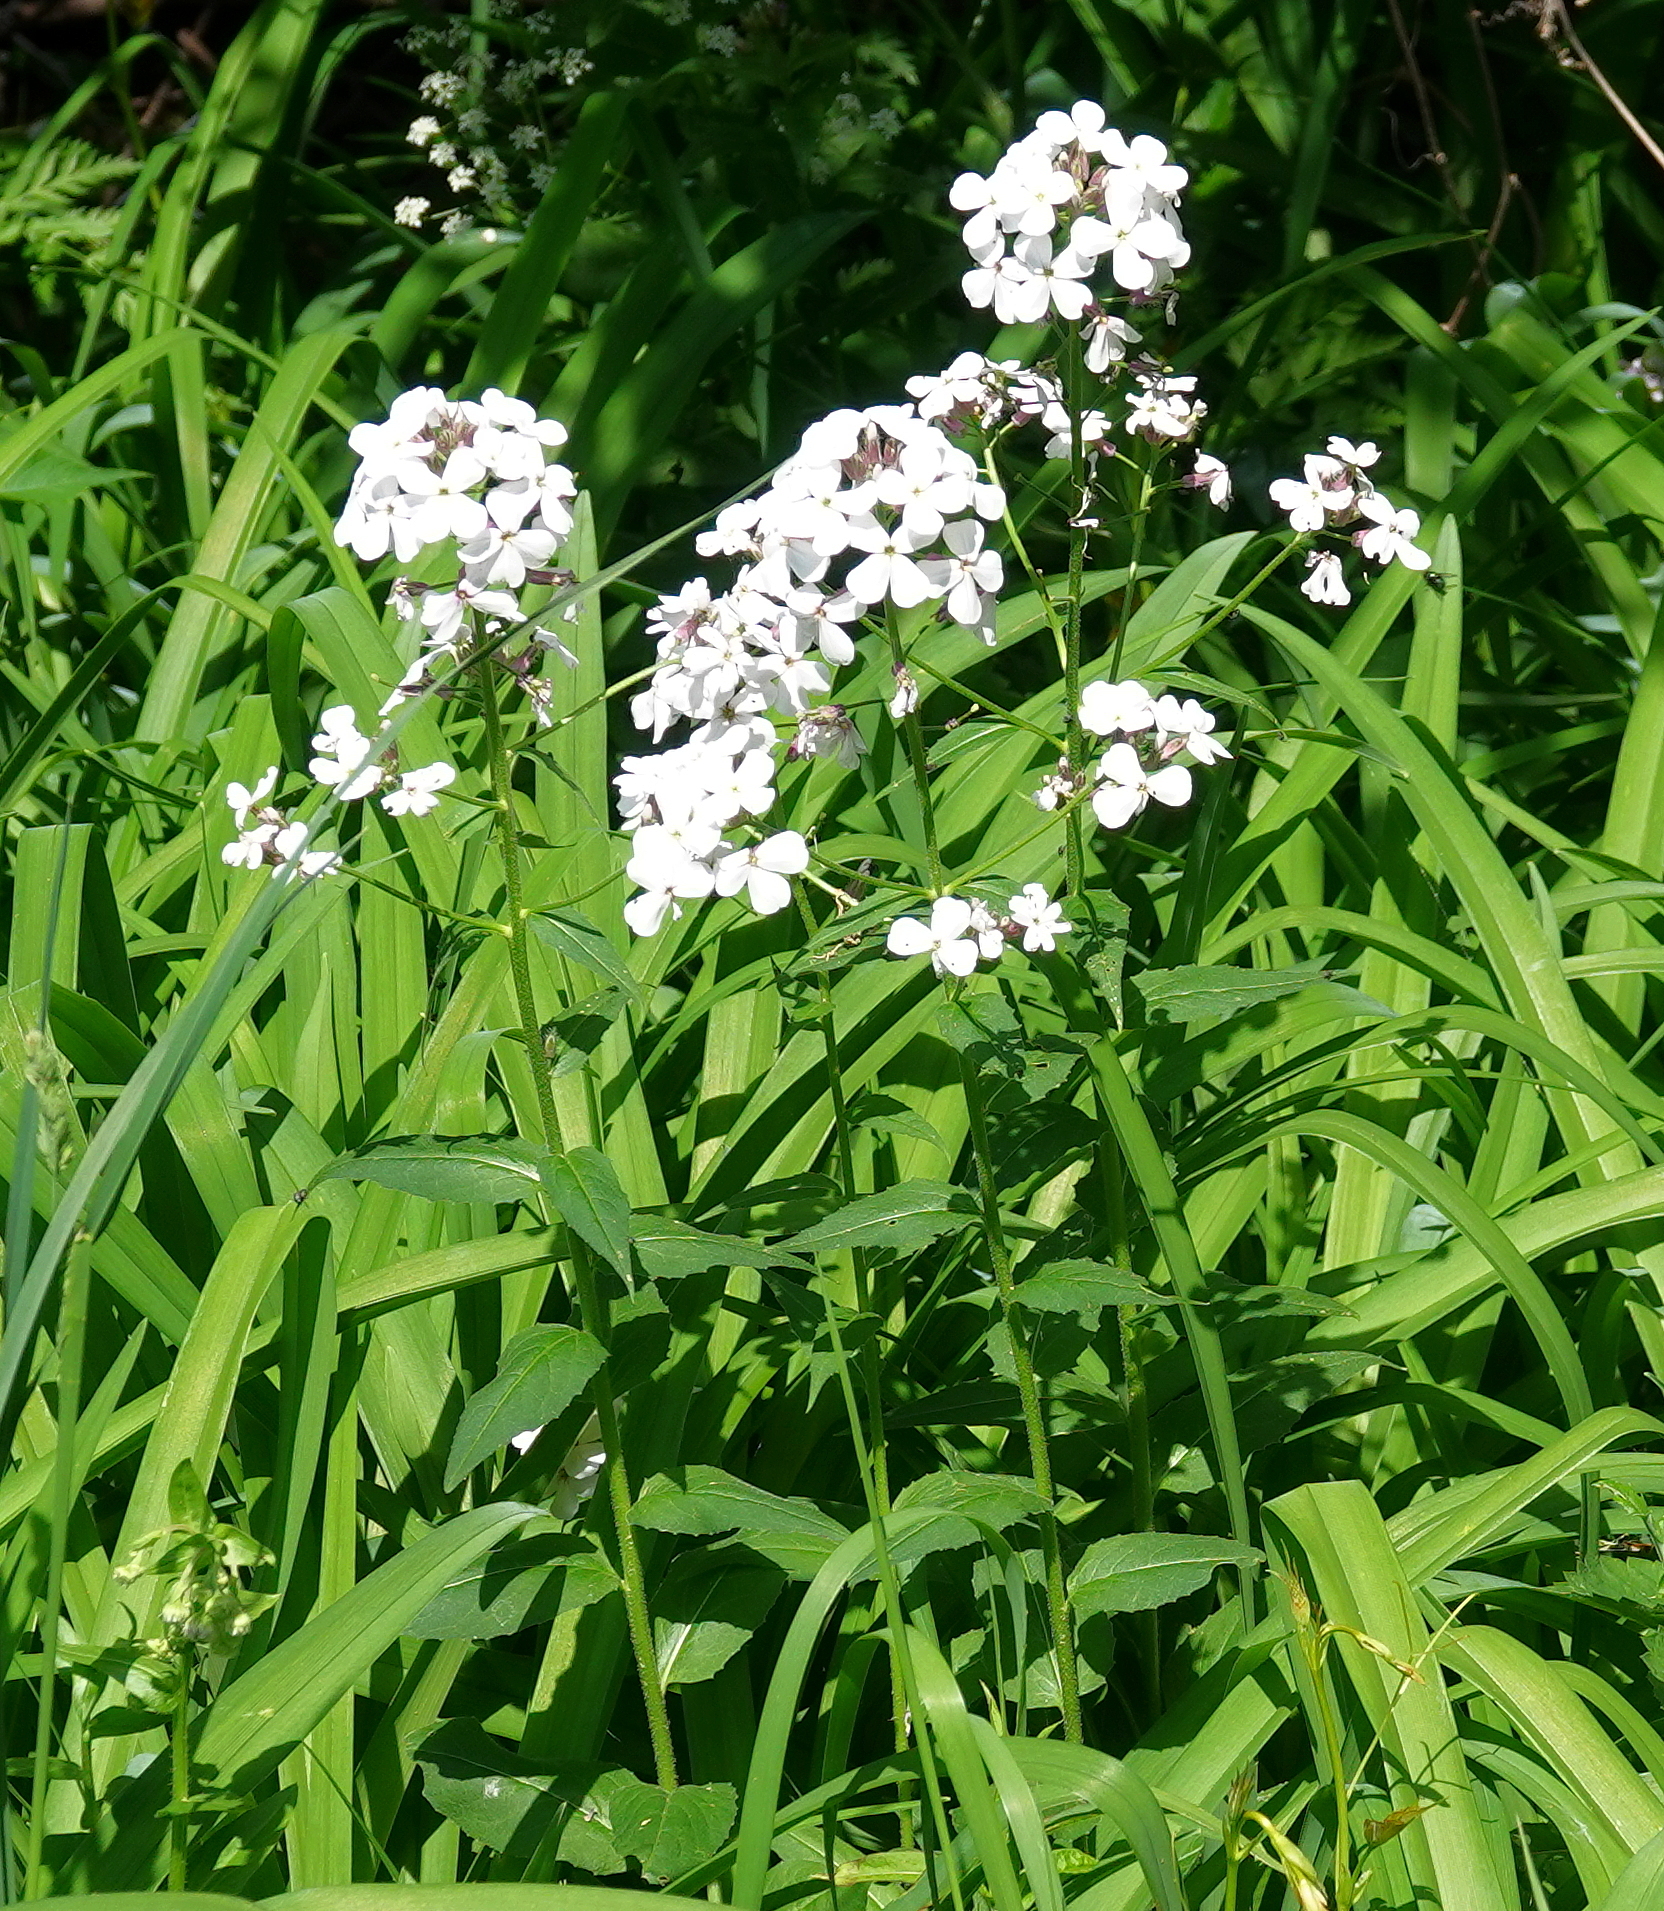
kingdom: Plantae
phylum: Tracheophyta
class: Magnoliopsida
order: Brassicales
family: Brassicaceae
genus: Hesperis
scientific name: Hesperis matronalis
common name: Dame's-violet
